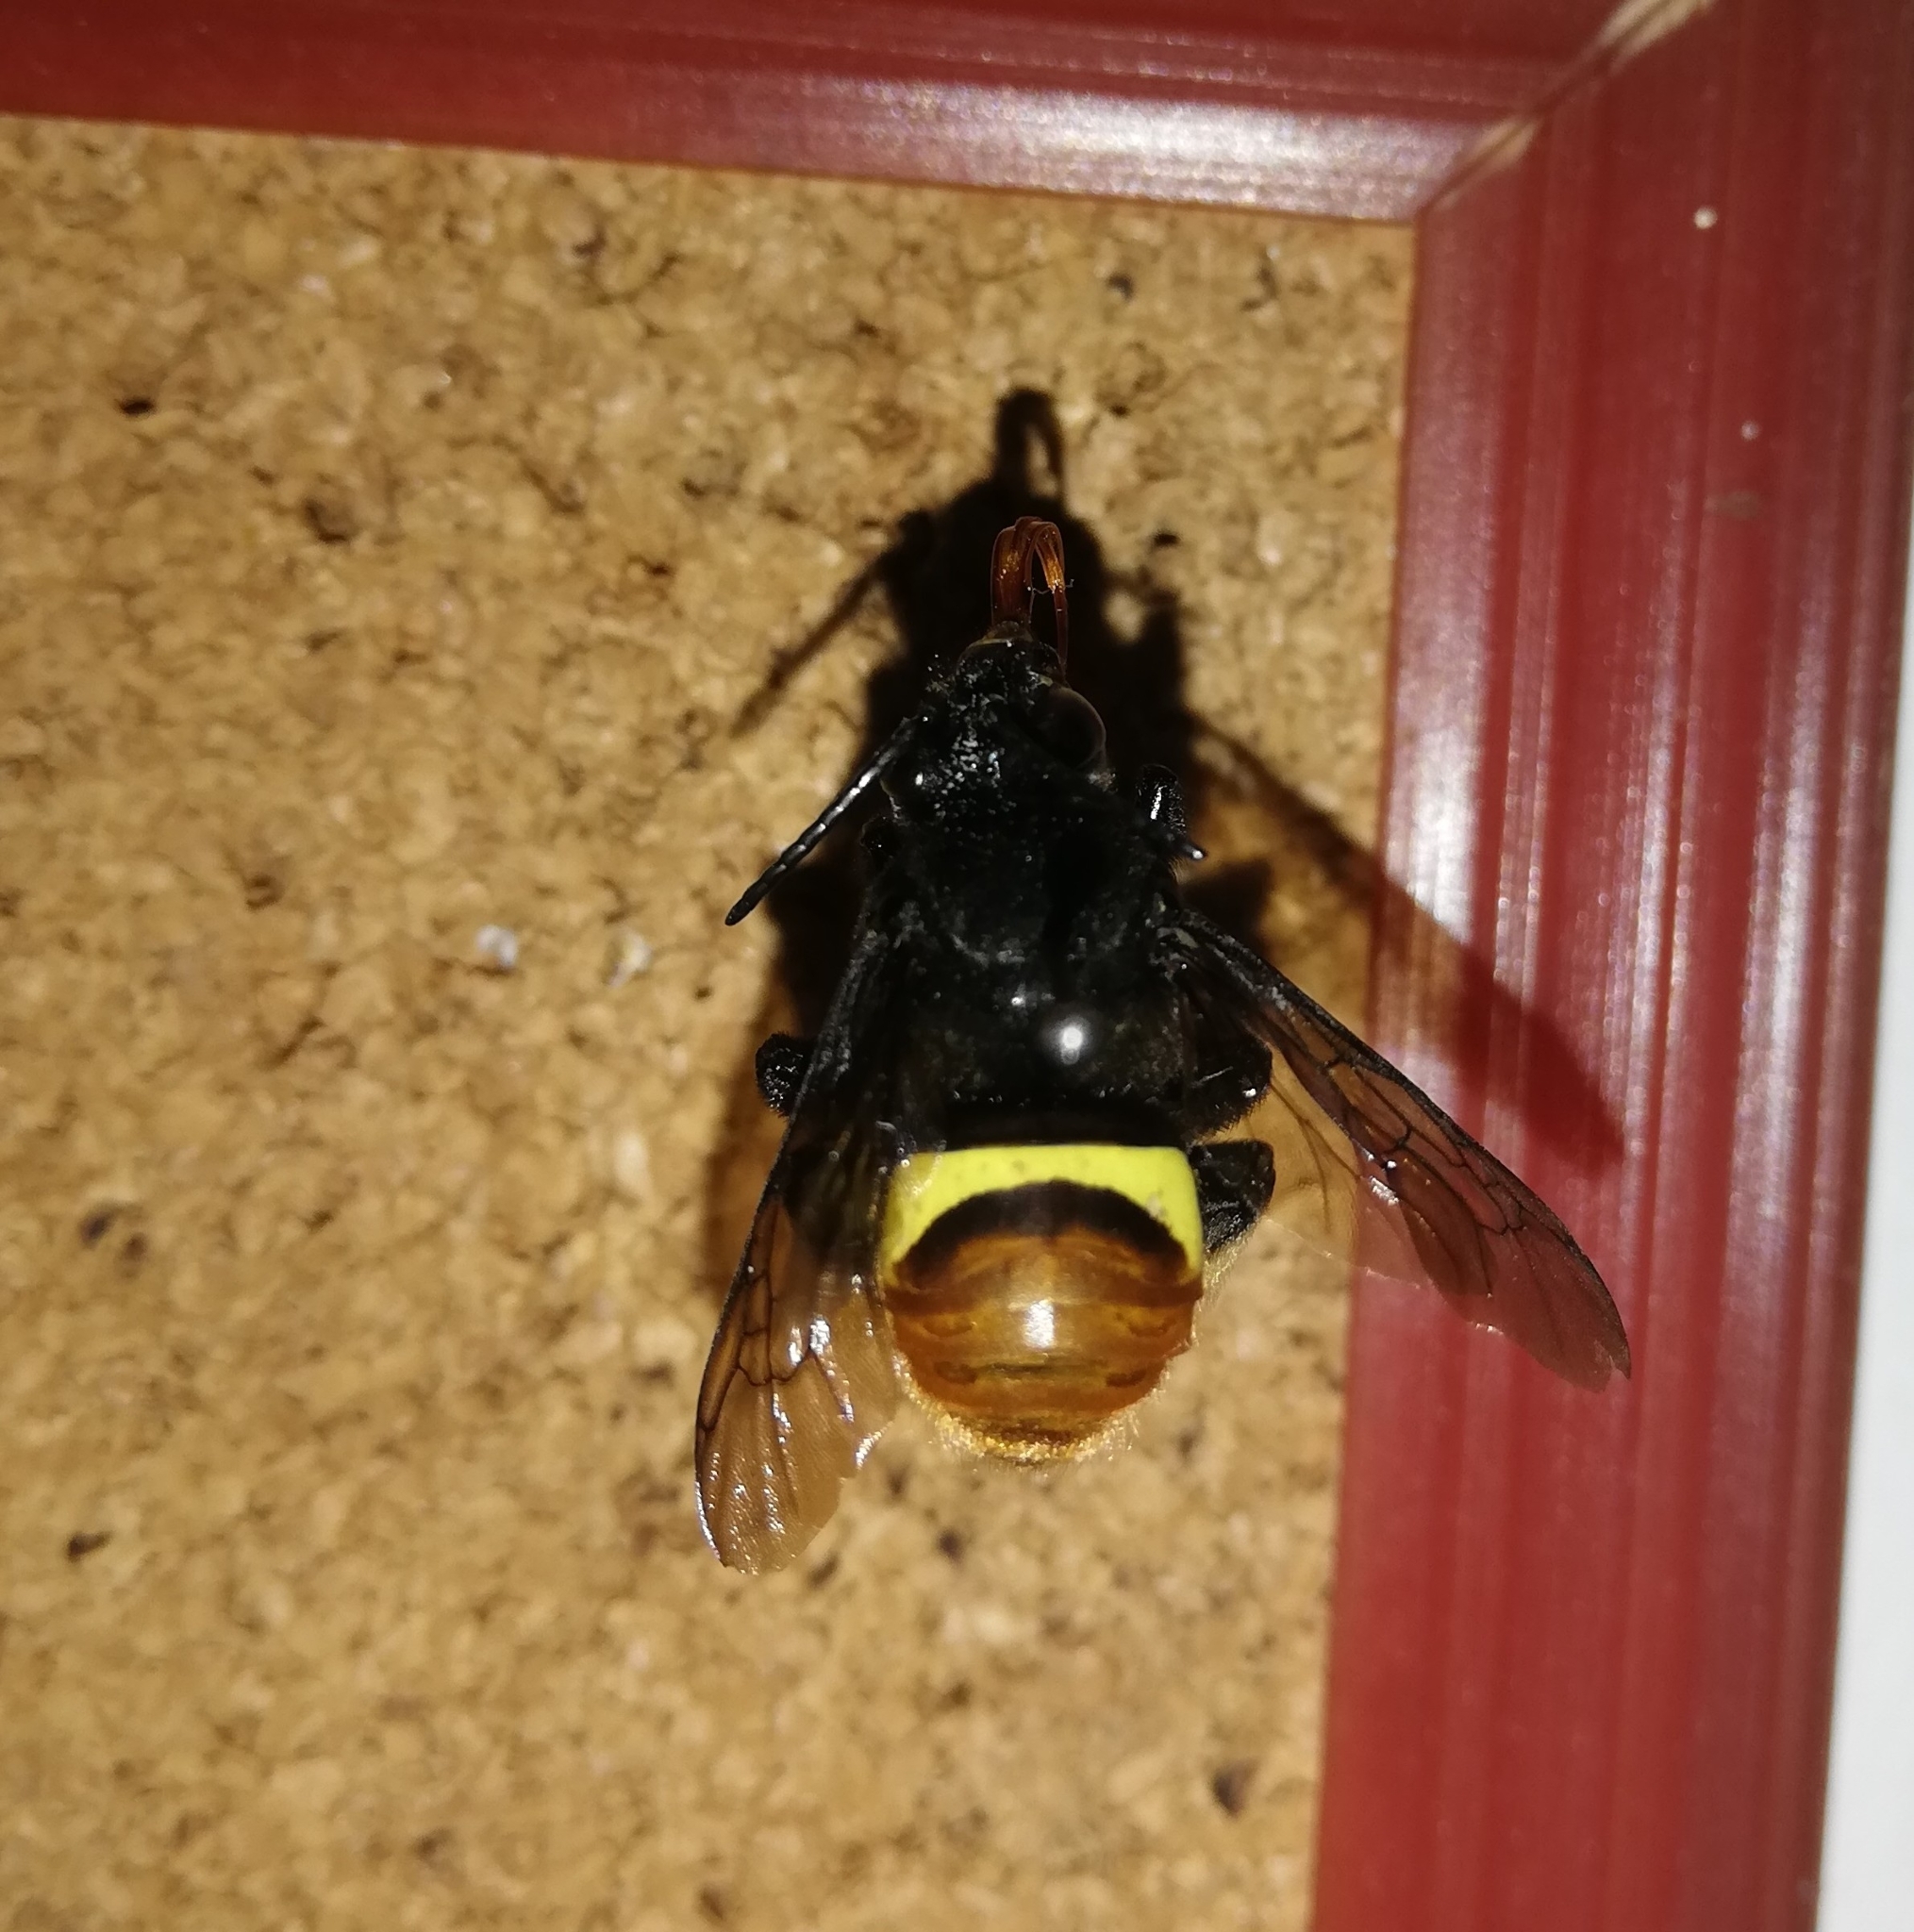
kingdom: Animalia
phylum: Arthropoda
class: Insecta
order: Hymenoptera
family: Apidae
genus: Epicharis
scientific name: Epicharis lunulata
